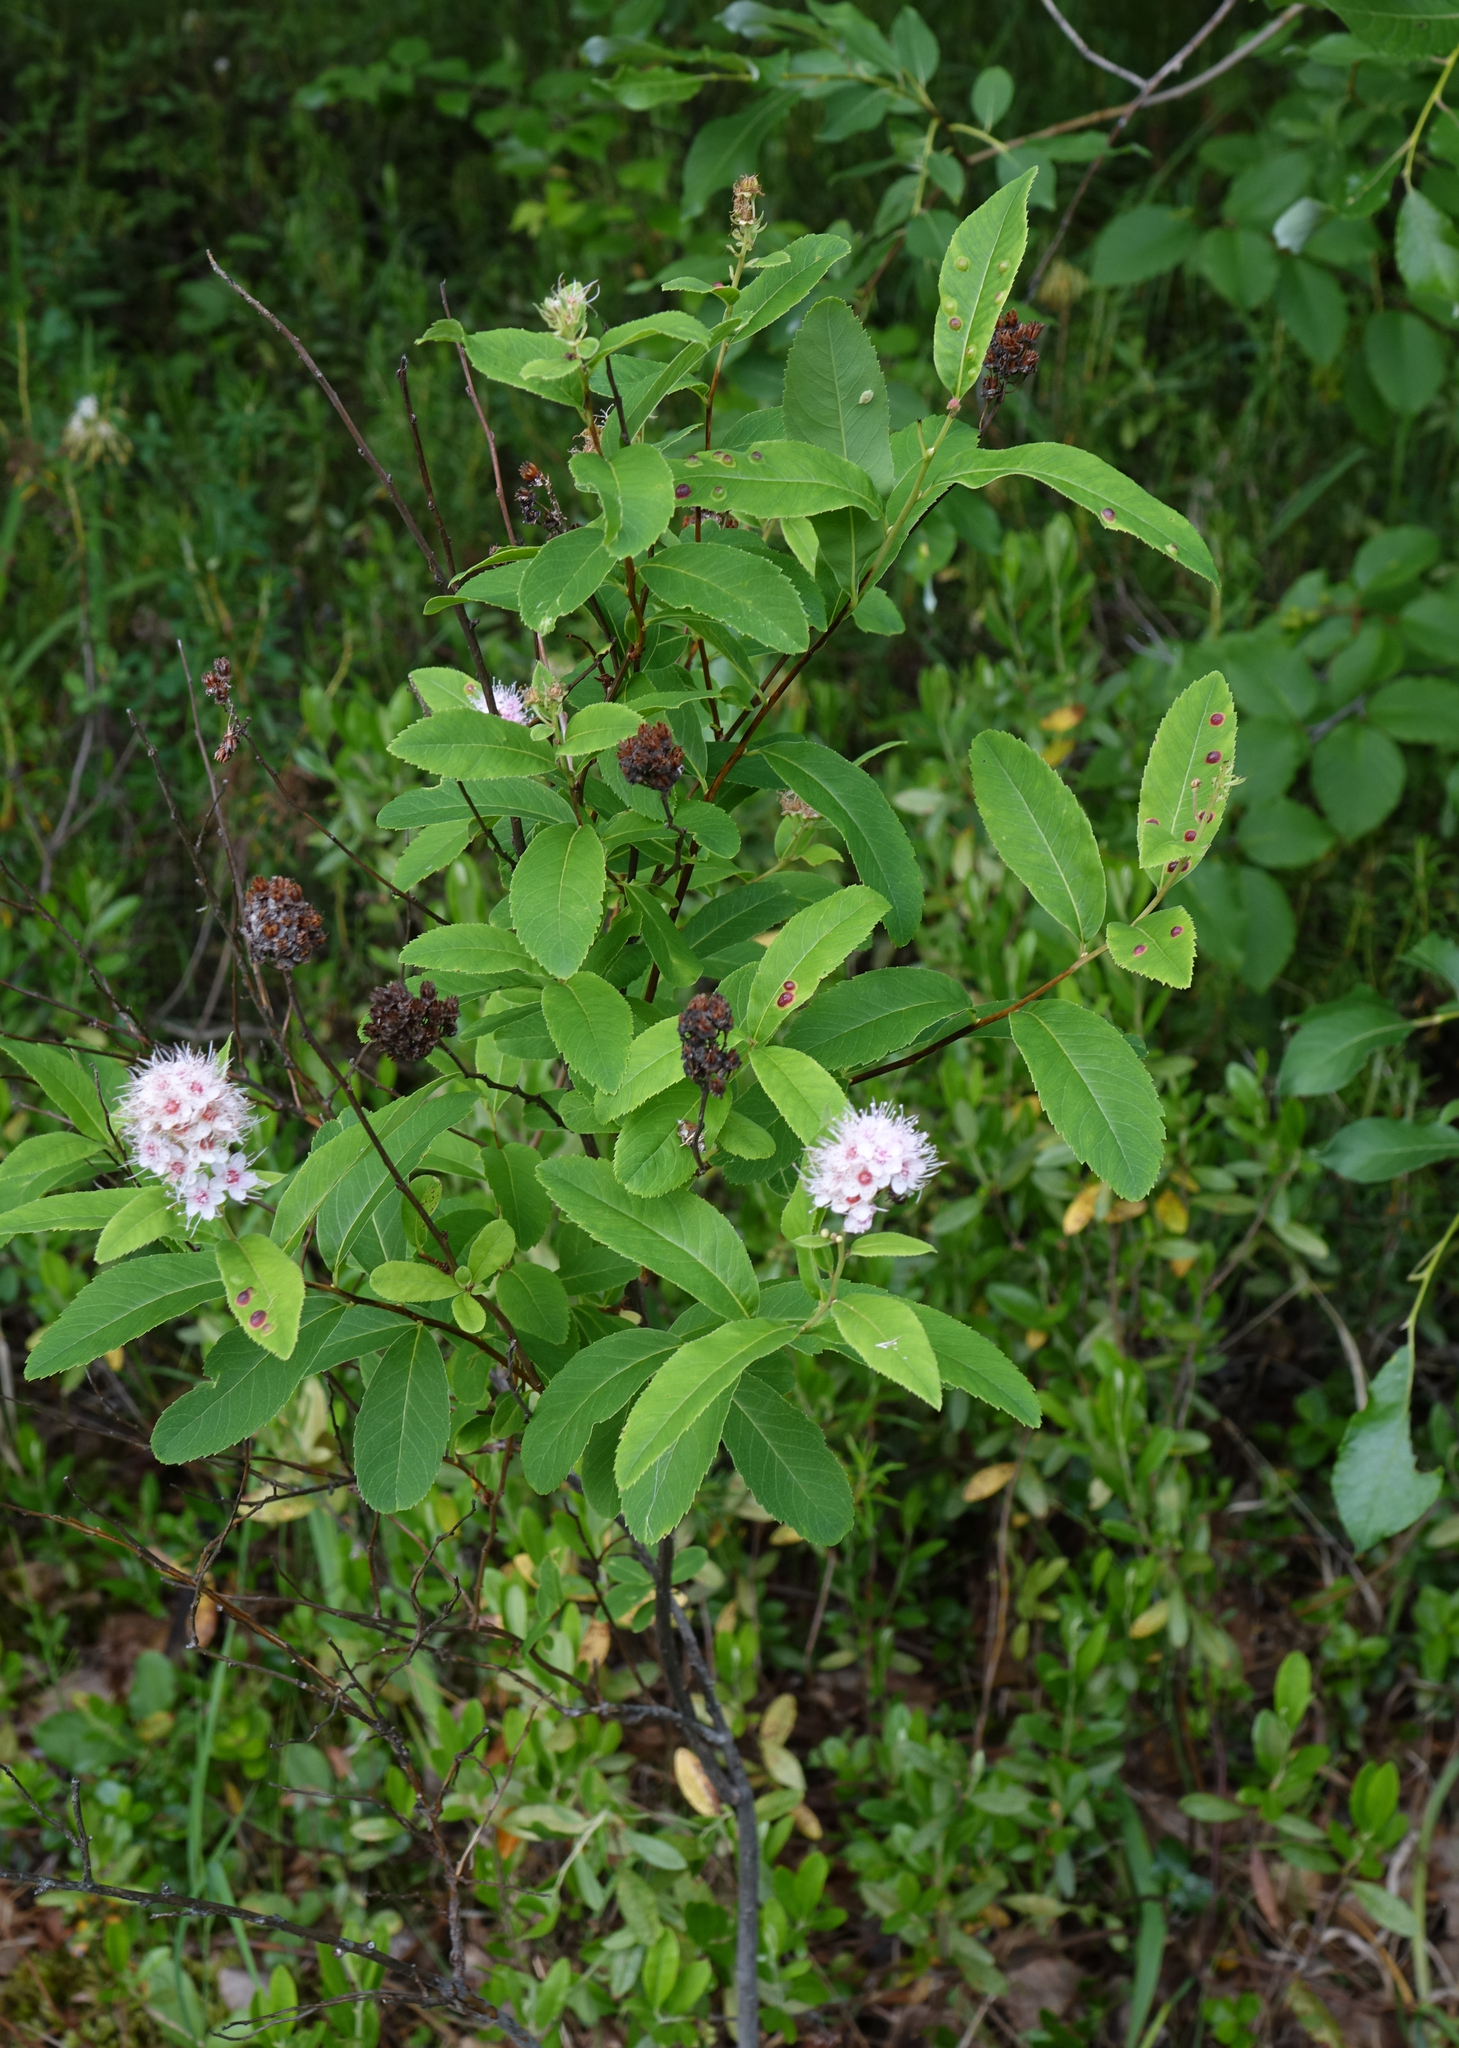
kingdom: Plantae
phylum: Tracheophyta
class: Magnoliopsida
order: Rosales
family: Rosaceae
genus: Spiraea
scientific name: Spiraea salicifolia
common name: Bridewort
